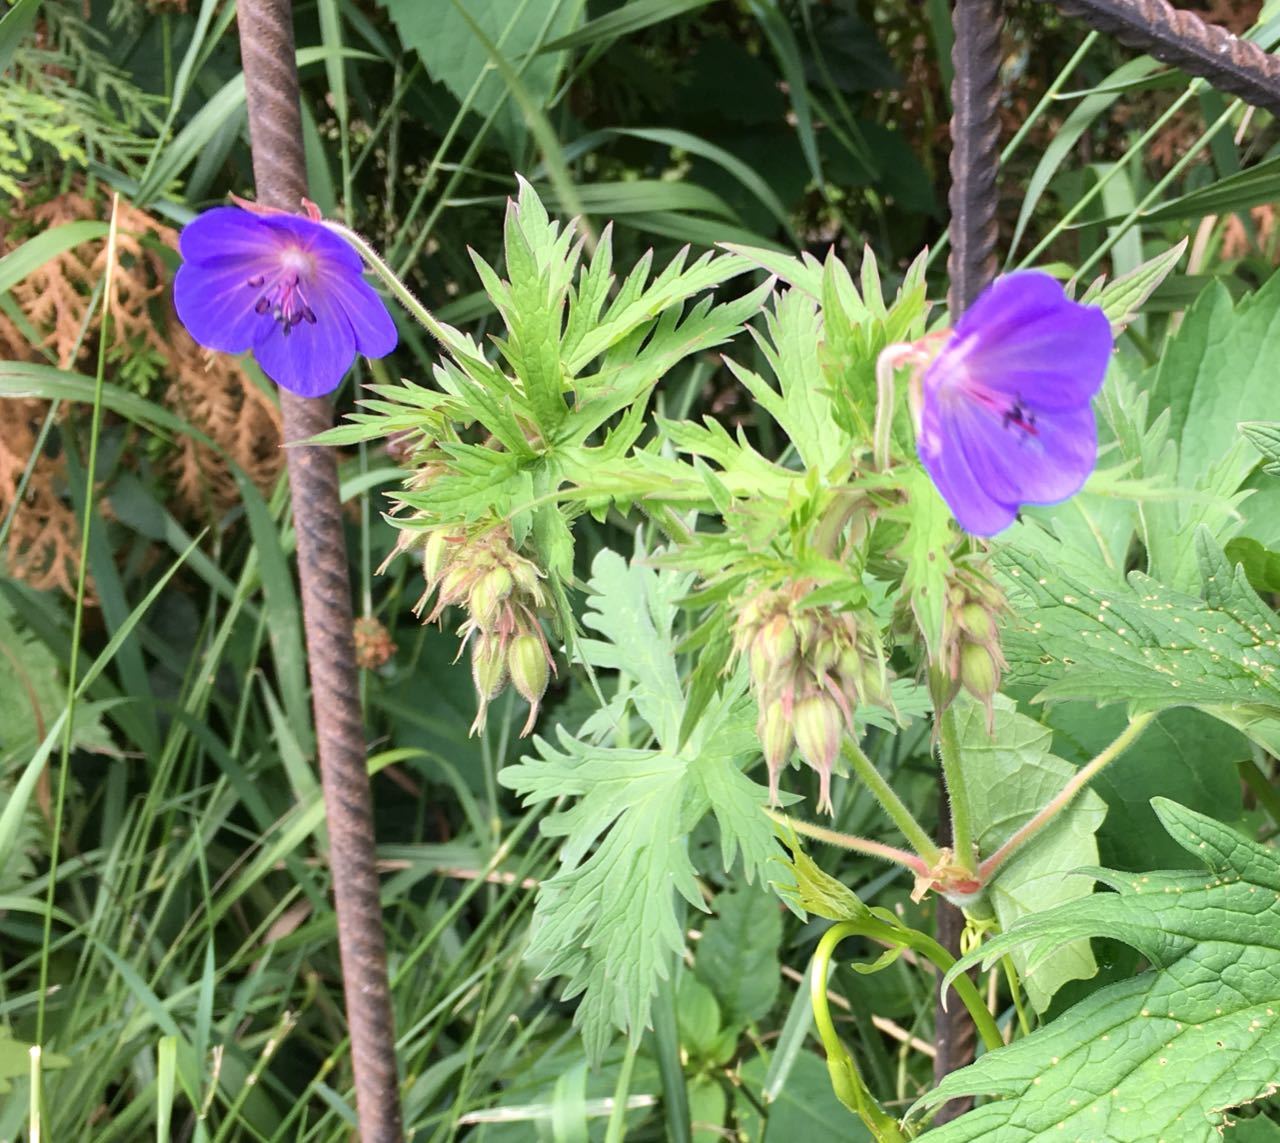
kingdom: Plantae
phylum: Tracheophyta
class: Magnoliopsida
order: Geraniales
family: Geraniaceae
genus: Geranium
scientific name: Geranium pratense
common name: Meadow crane's-bill
